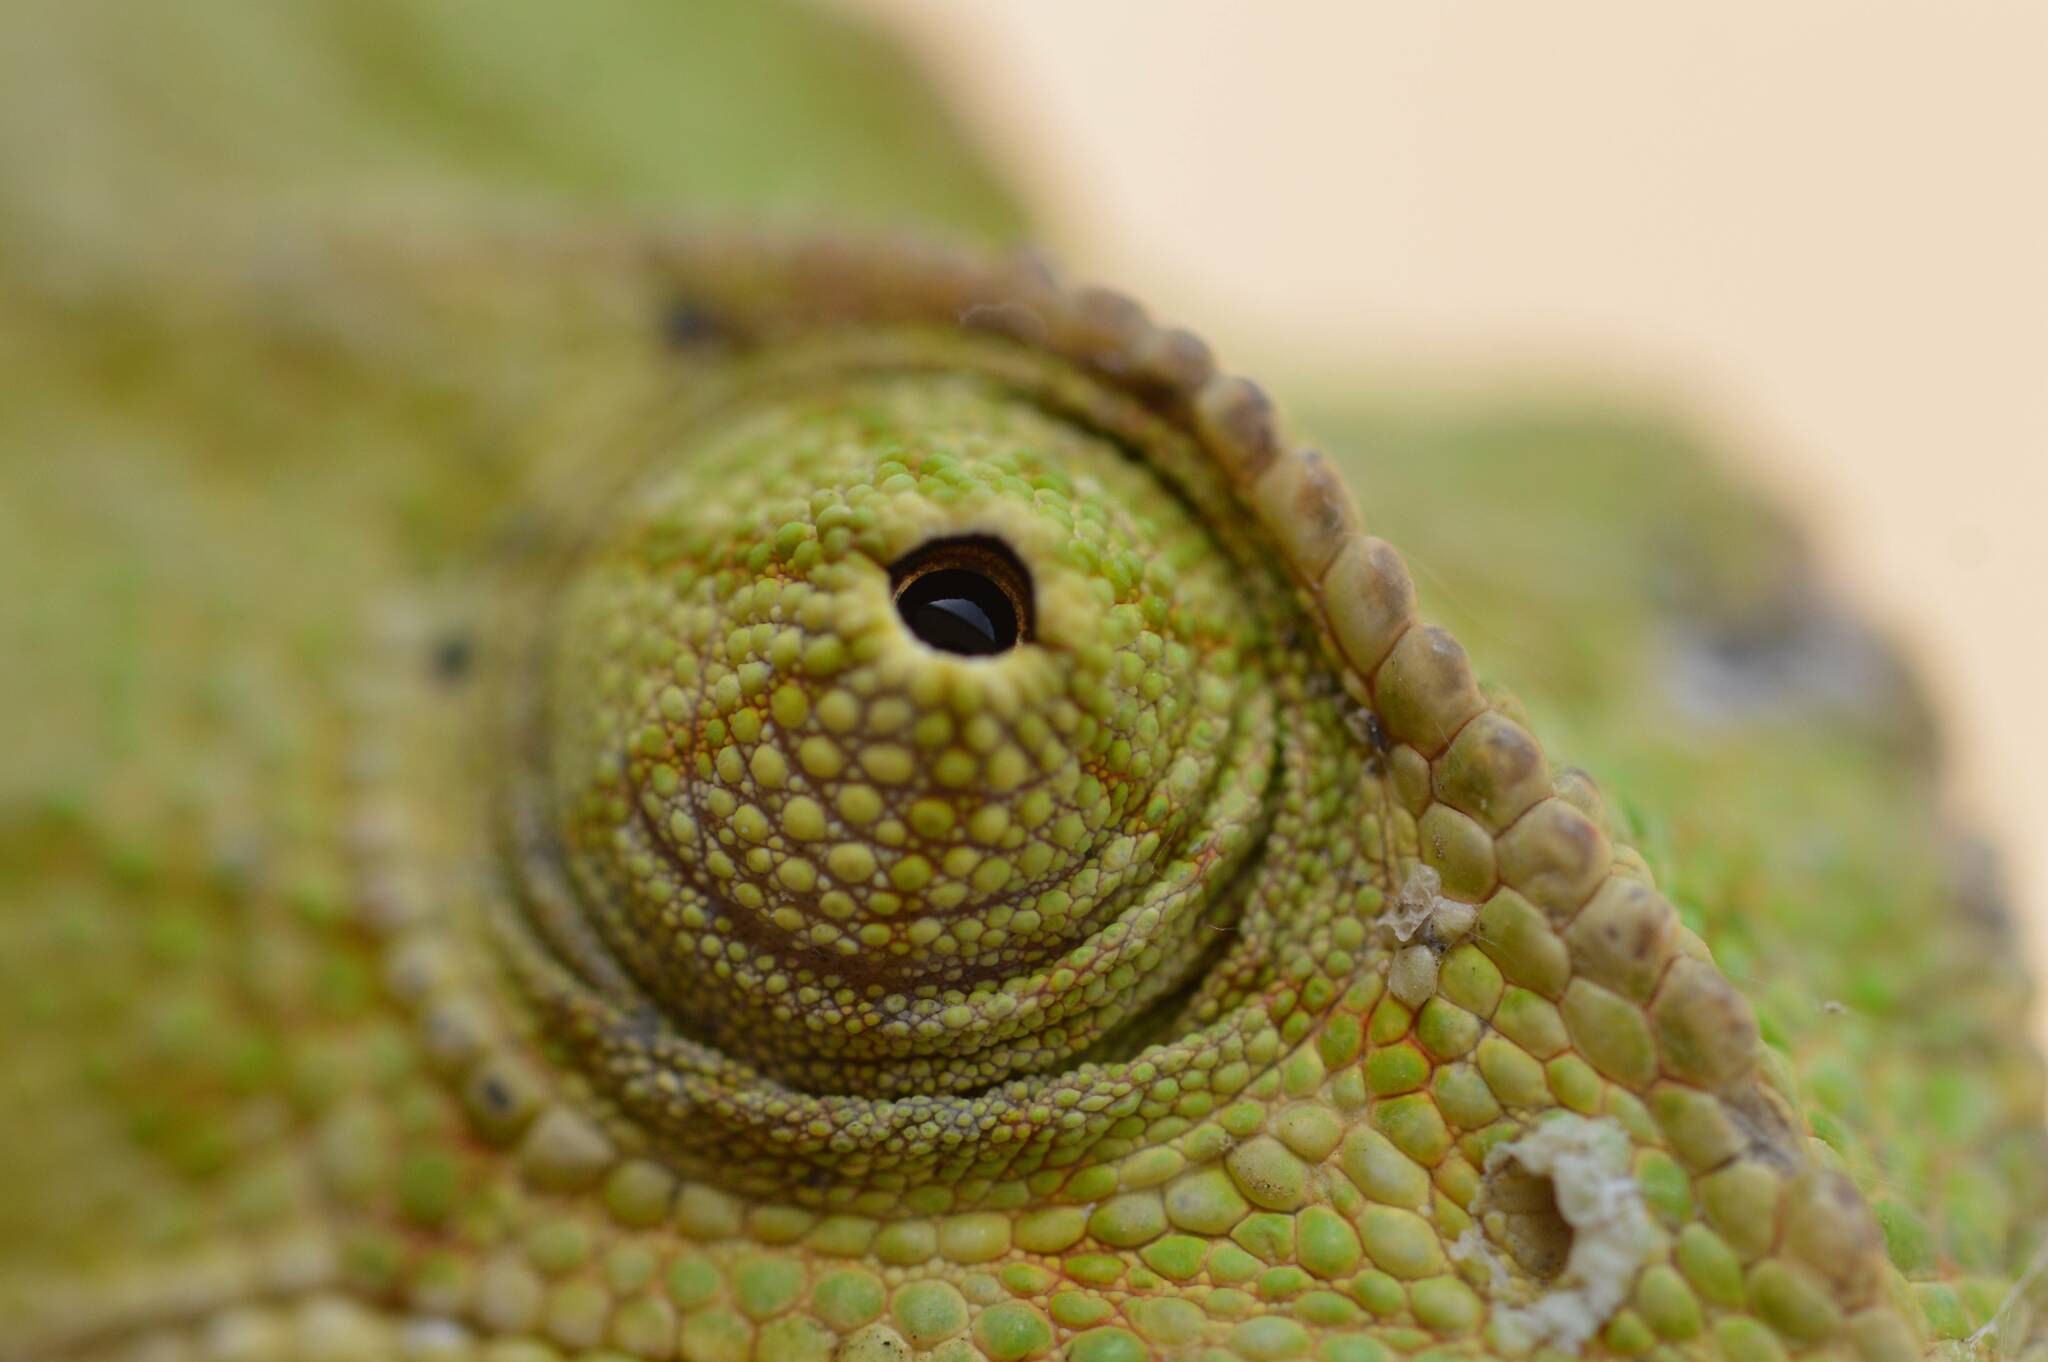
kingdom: Animalia
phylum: Chordata
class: Squamata
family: Chamaeleonidae
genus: Chamaeleo
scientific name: Chamaeleo chamaeleon
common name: Mediterranean chameleon
